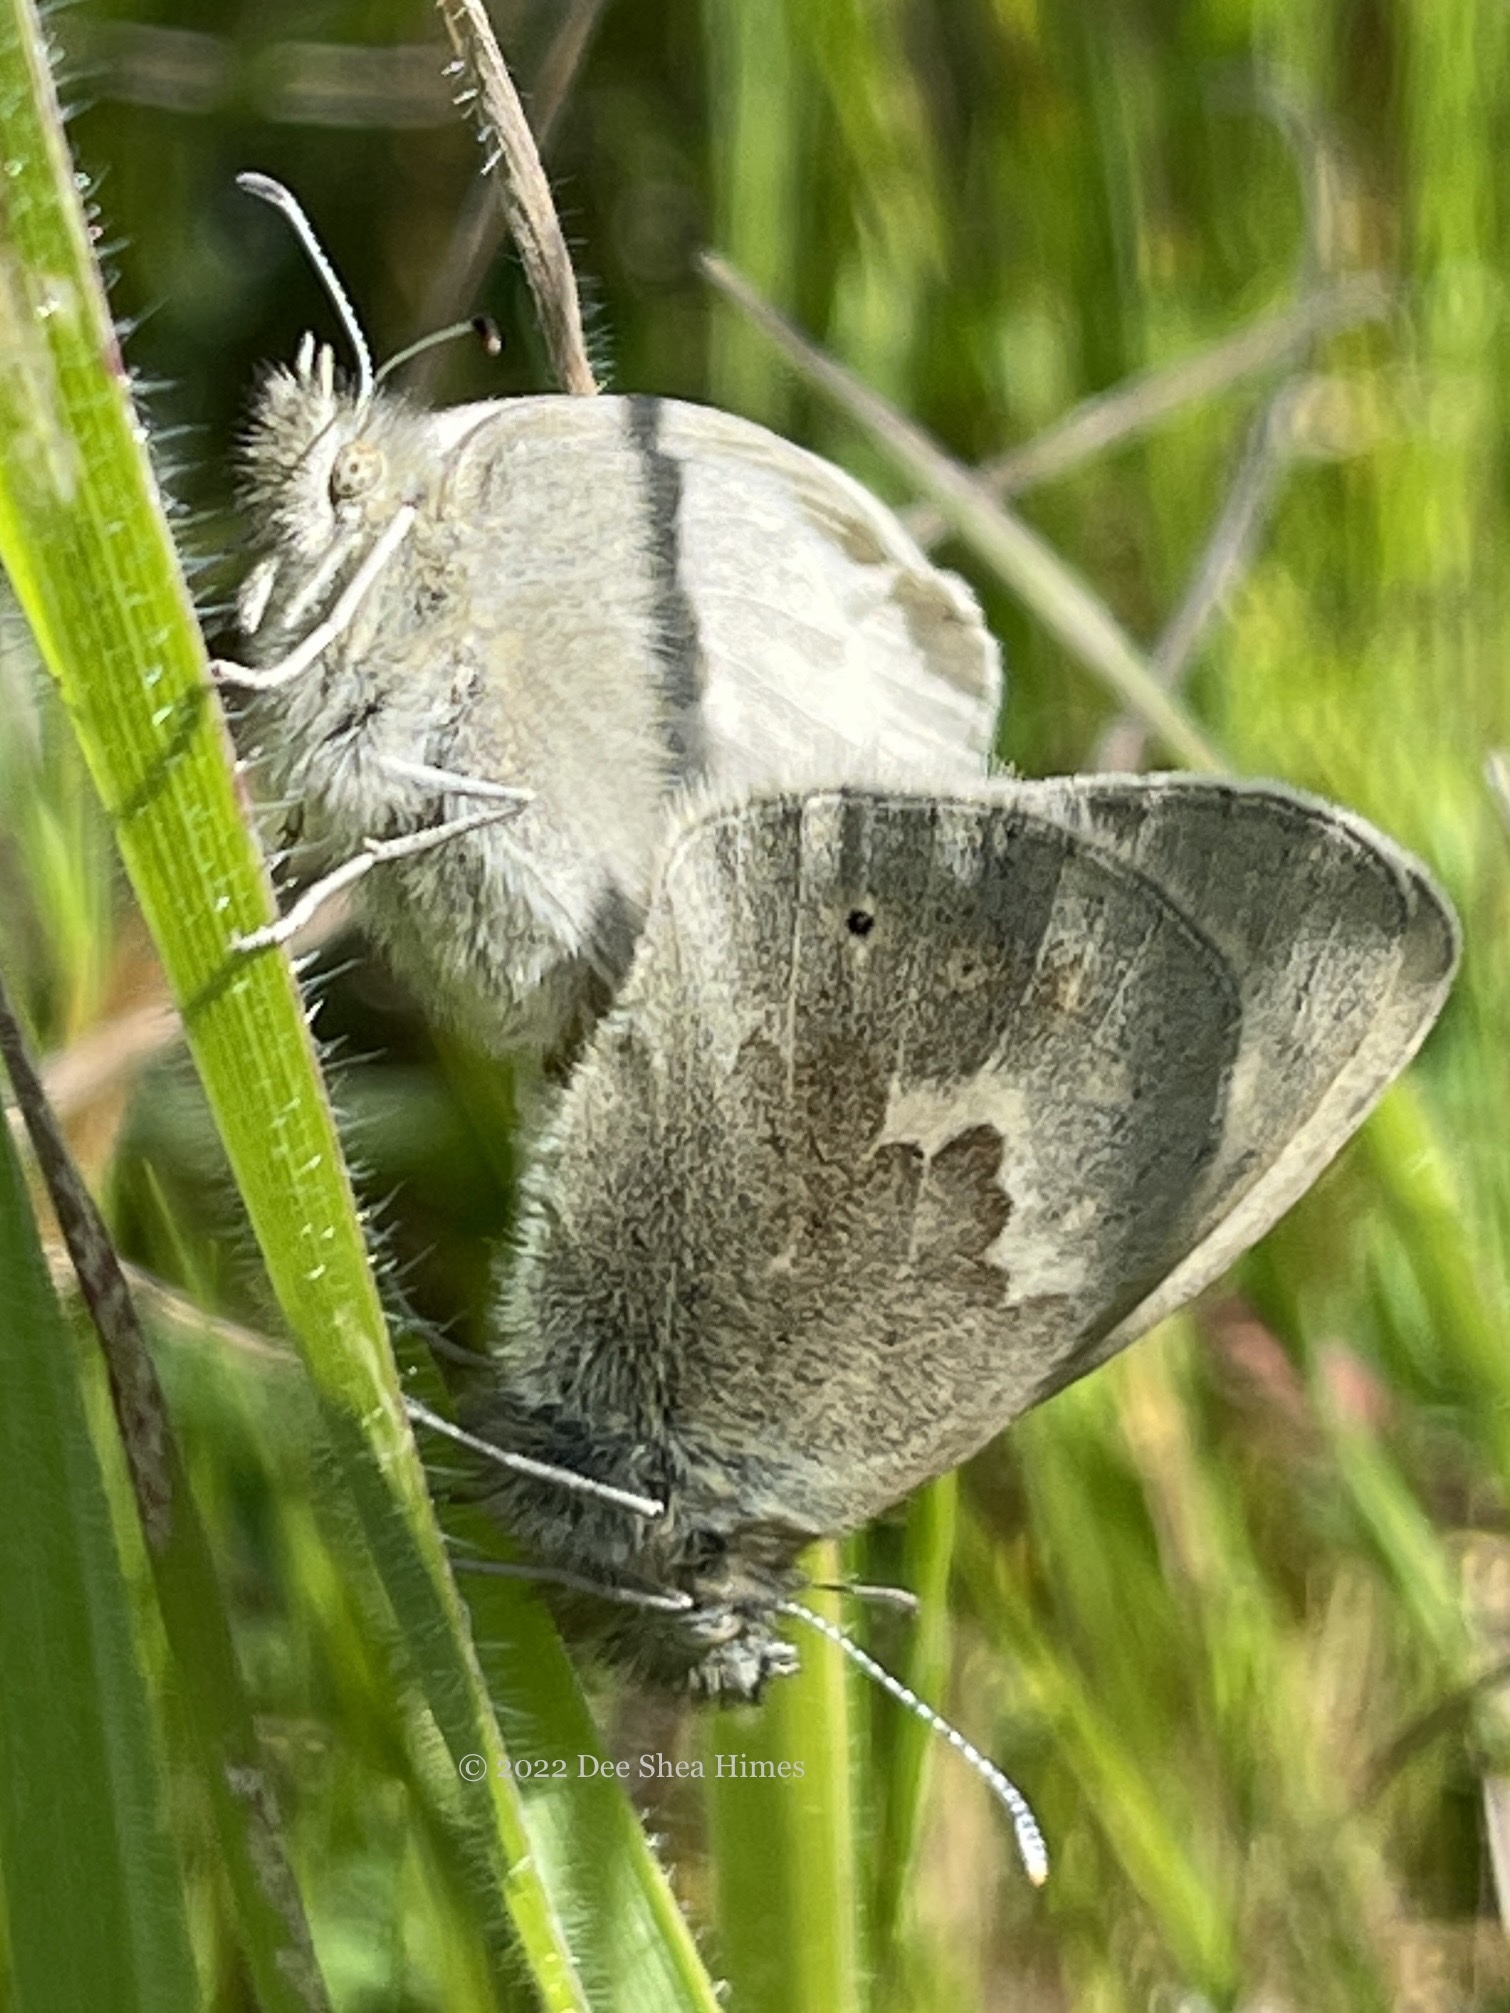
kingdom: Animalia
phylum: Arthropoda
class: Insecta
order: Lepidoptera
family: Nymphalidae
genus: Coenonympha
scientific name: Coenonympha california
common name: Common ringlet
